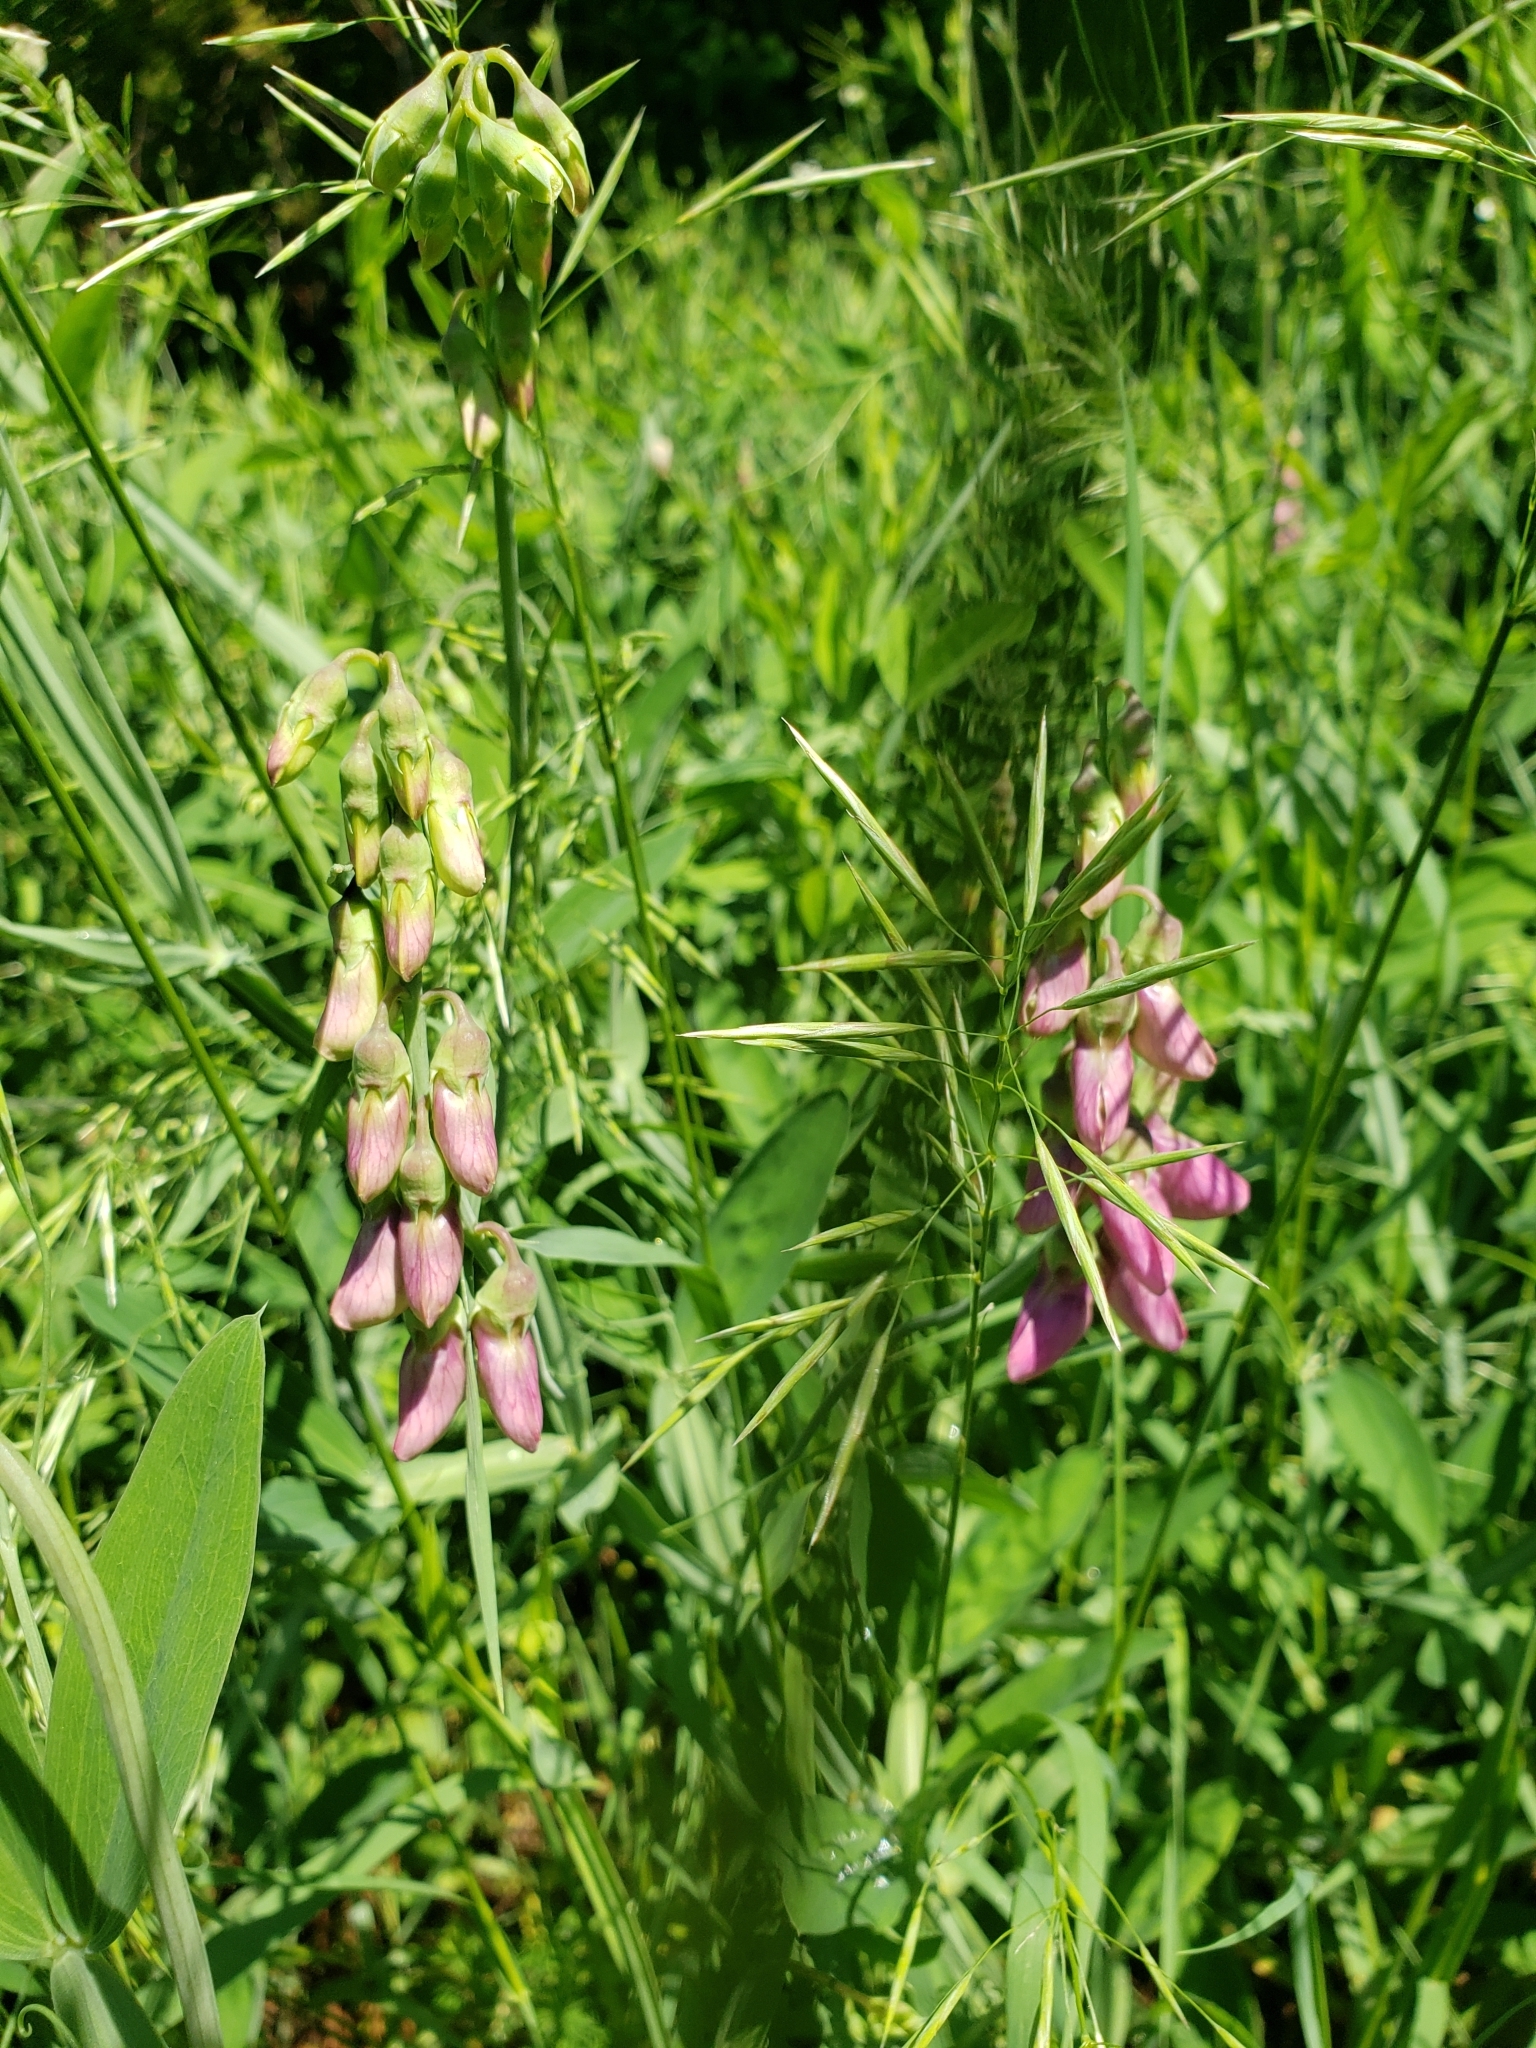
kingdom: Plantae
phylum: Tracheophyta
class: Magnoliopsida
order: Fabales
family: Fabaceae
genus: Lathyrus
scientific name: Lathyrus latifolius
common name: Perennial pea
